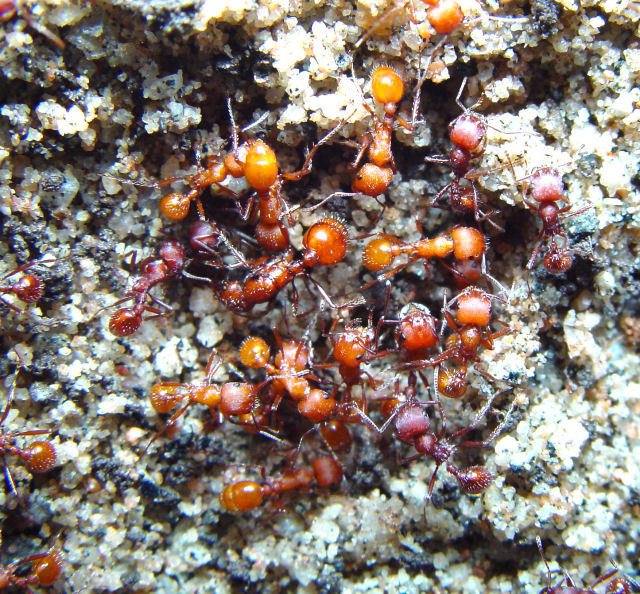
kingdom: Animalia
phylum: Arthropoda
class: Insecta
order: Hymenoptera
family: Formicidae
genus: Pogonomyrmex
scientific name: Pogonomyrmex montanus
